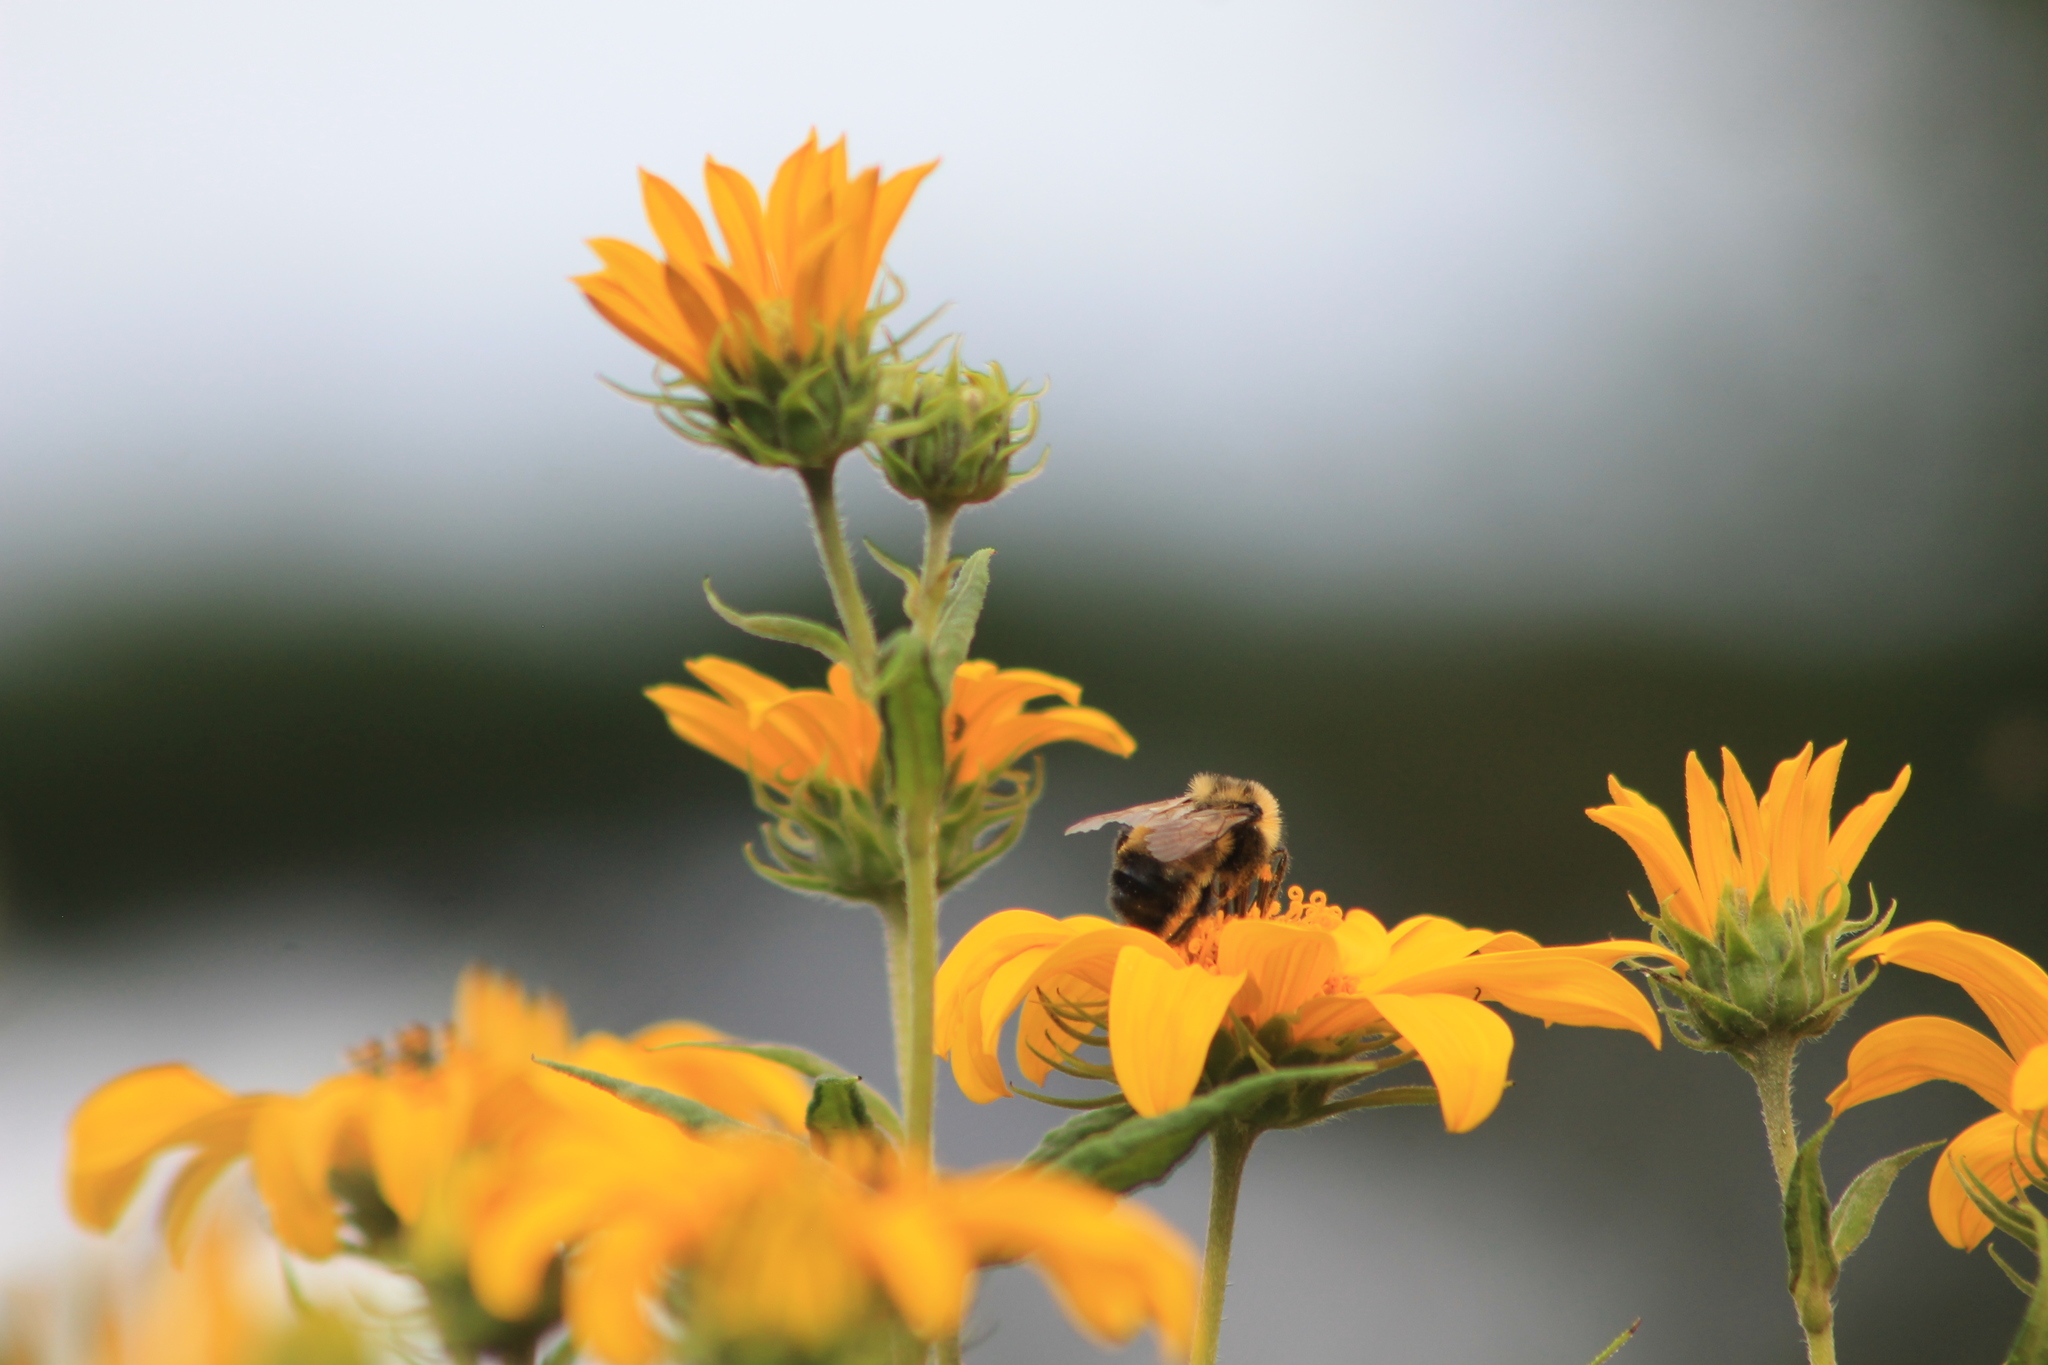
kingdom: Animalia
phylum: Arthropoda
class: Insecta
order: Hymenoptera
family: Apidae
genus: Bombus
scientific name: Bombus citrinus
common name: Lemon cuckoo bumble bee
